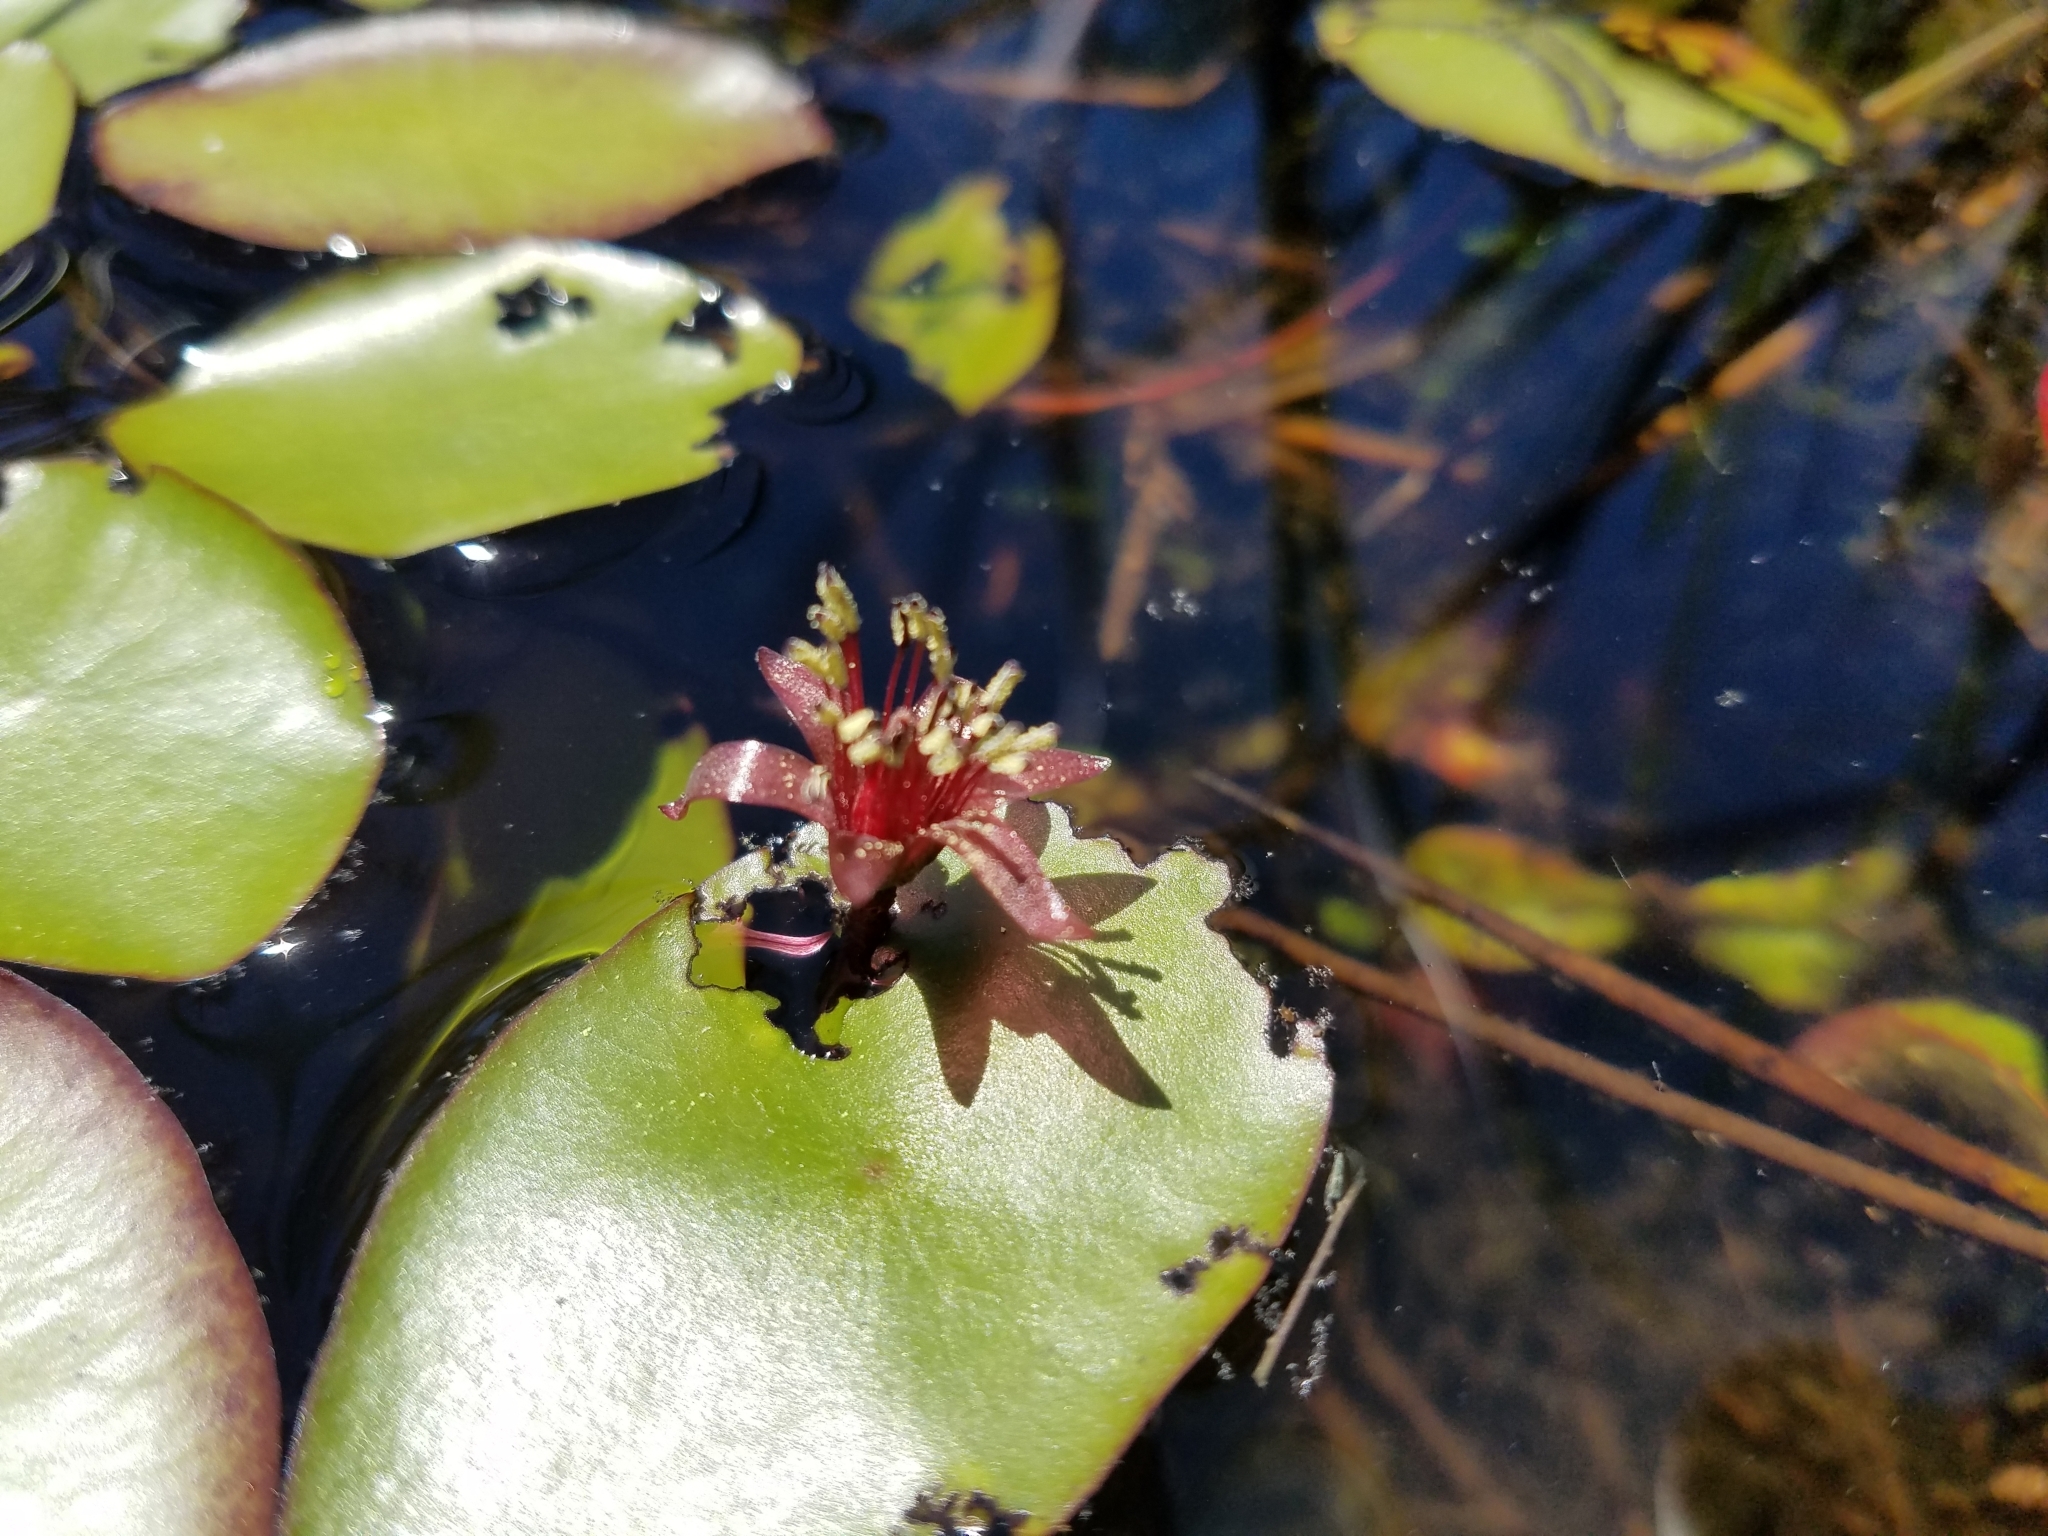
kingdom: Plantae
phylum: Tracheophyta
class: Magnoliopsida
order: Nymphaeales
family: Cabombaceae
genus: Brasenia
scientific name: Brasenia schreberi
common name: Water-shield
